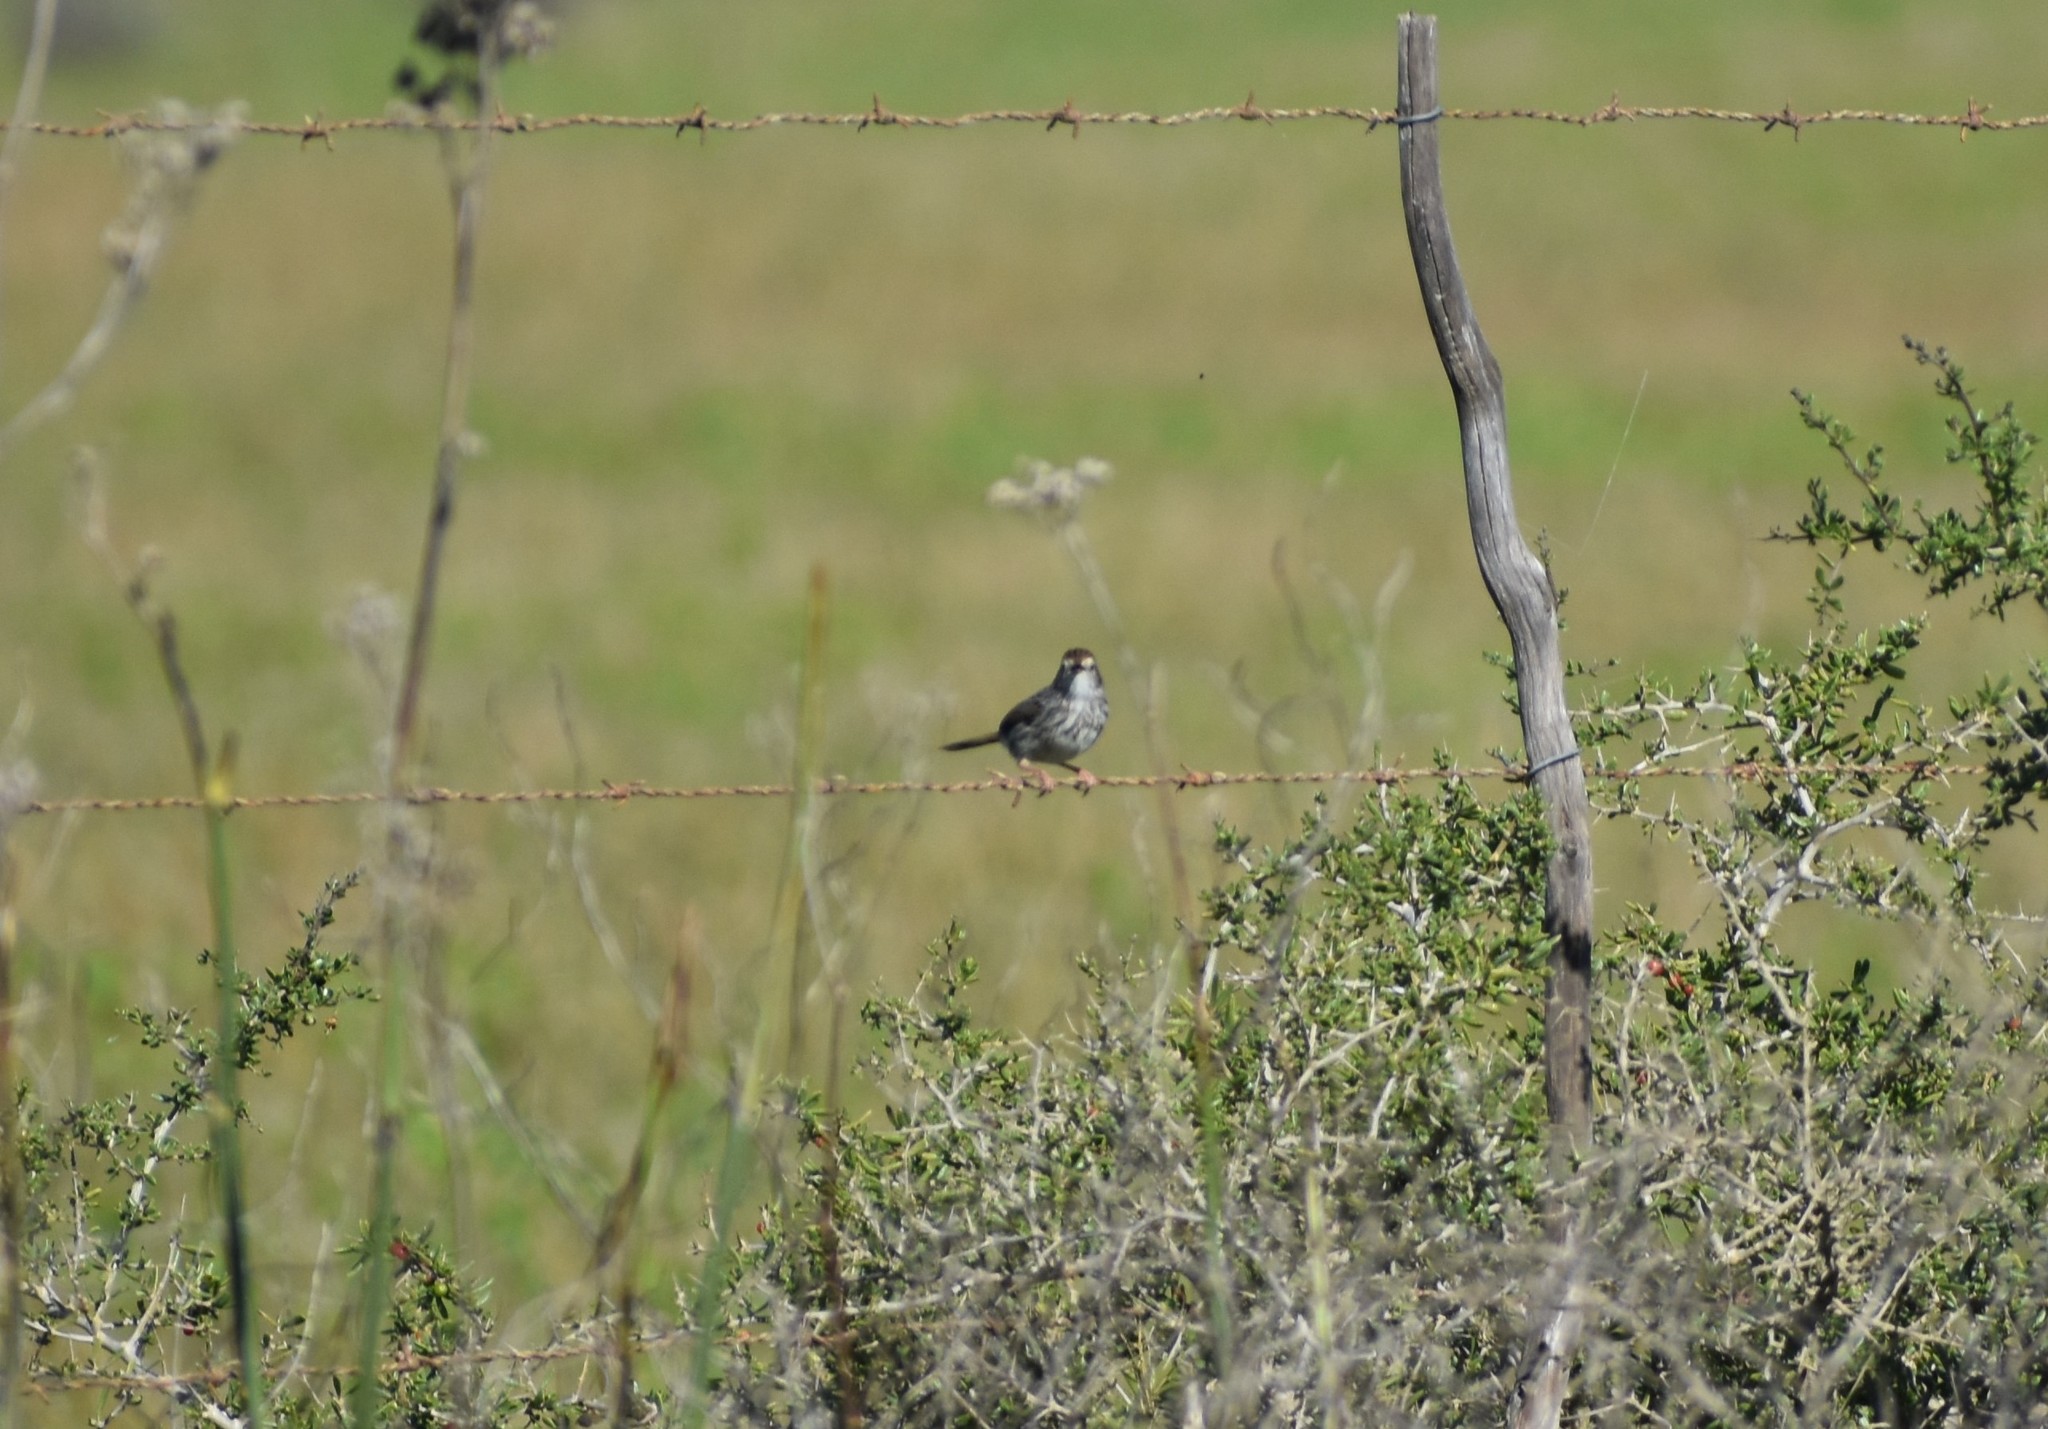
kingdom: Animalia
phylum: Chordata
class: Aves
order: Passeriformes
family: Cisticolidae
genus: Cisticola
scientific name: Cisticola subruficapilla
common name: Grey-backed cisticola
